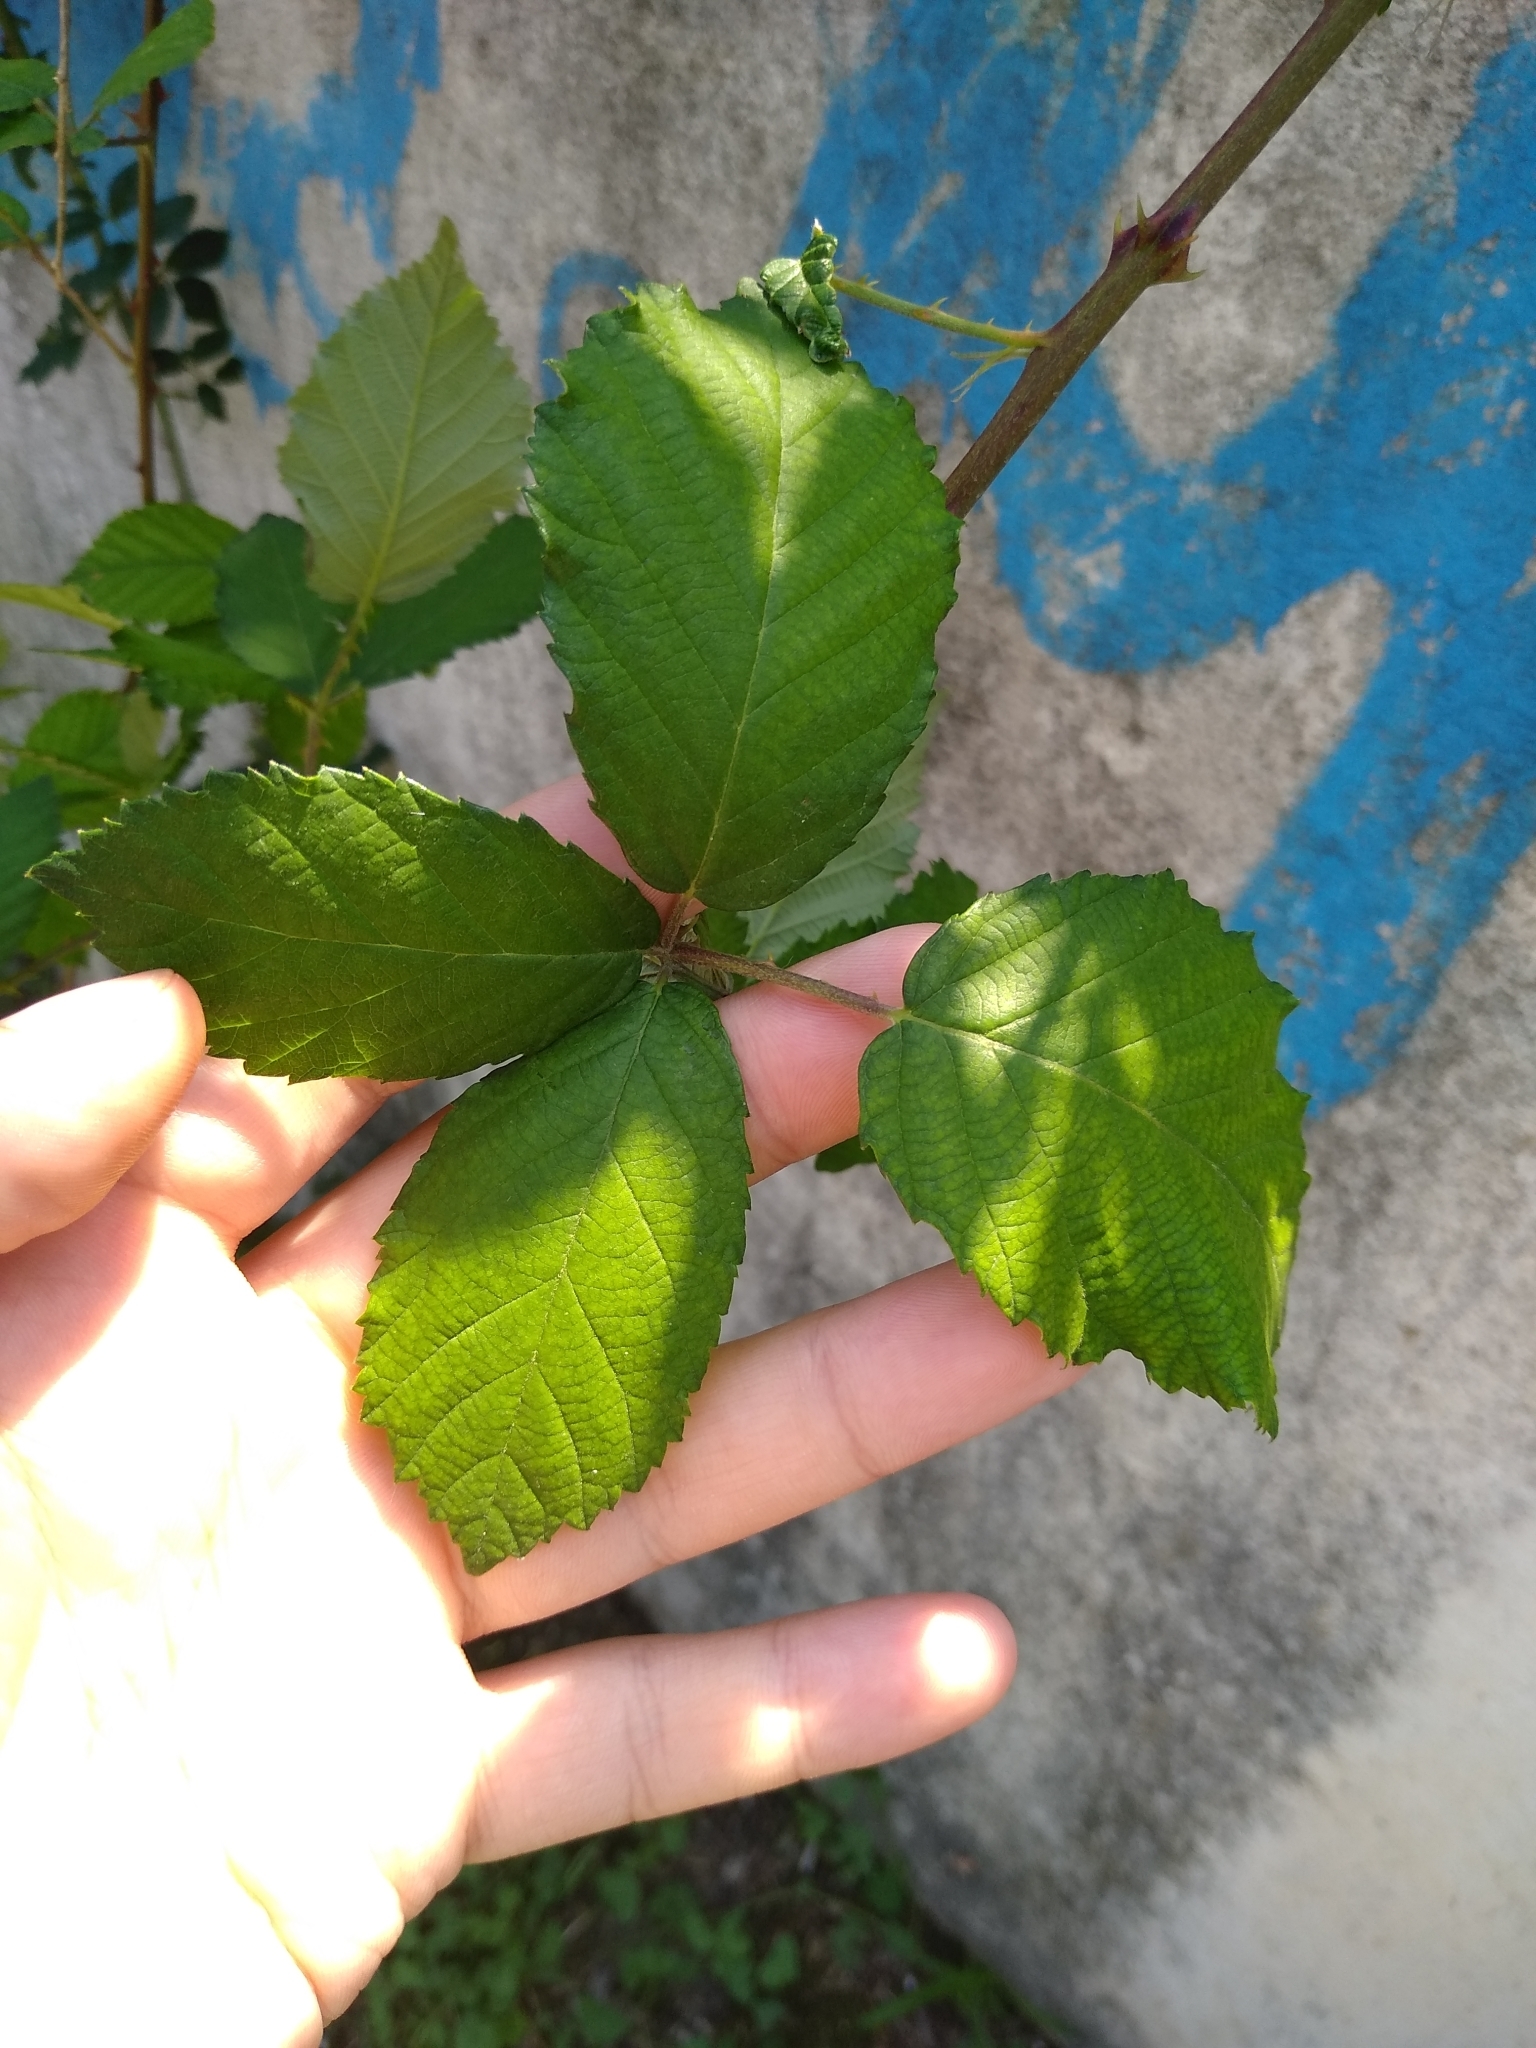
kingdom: Plantae
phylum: Tracheophyta
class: Magnoliopsida
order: Rosales
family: Rosaceae
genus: Rubus
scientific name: Rubus caesius
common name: Dewberry
